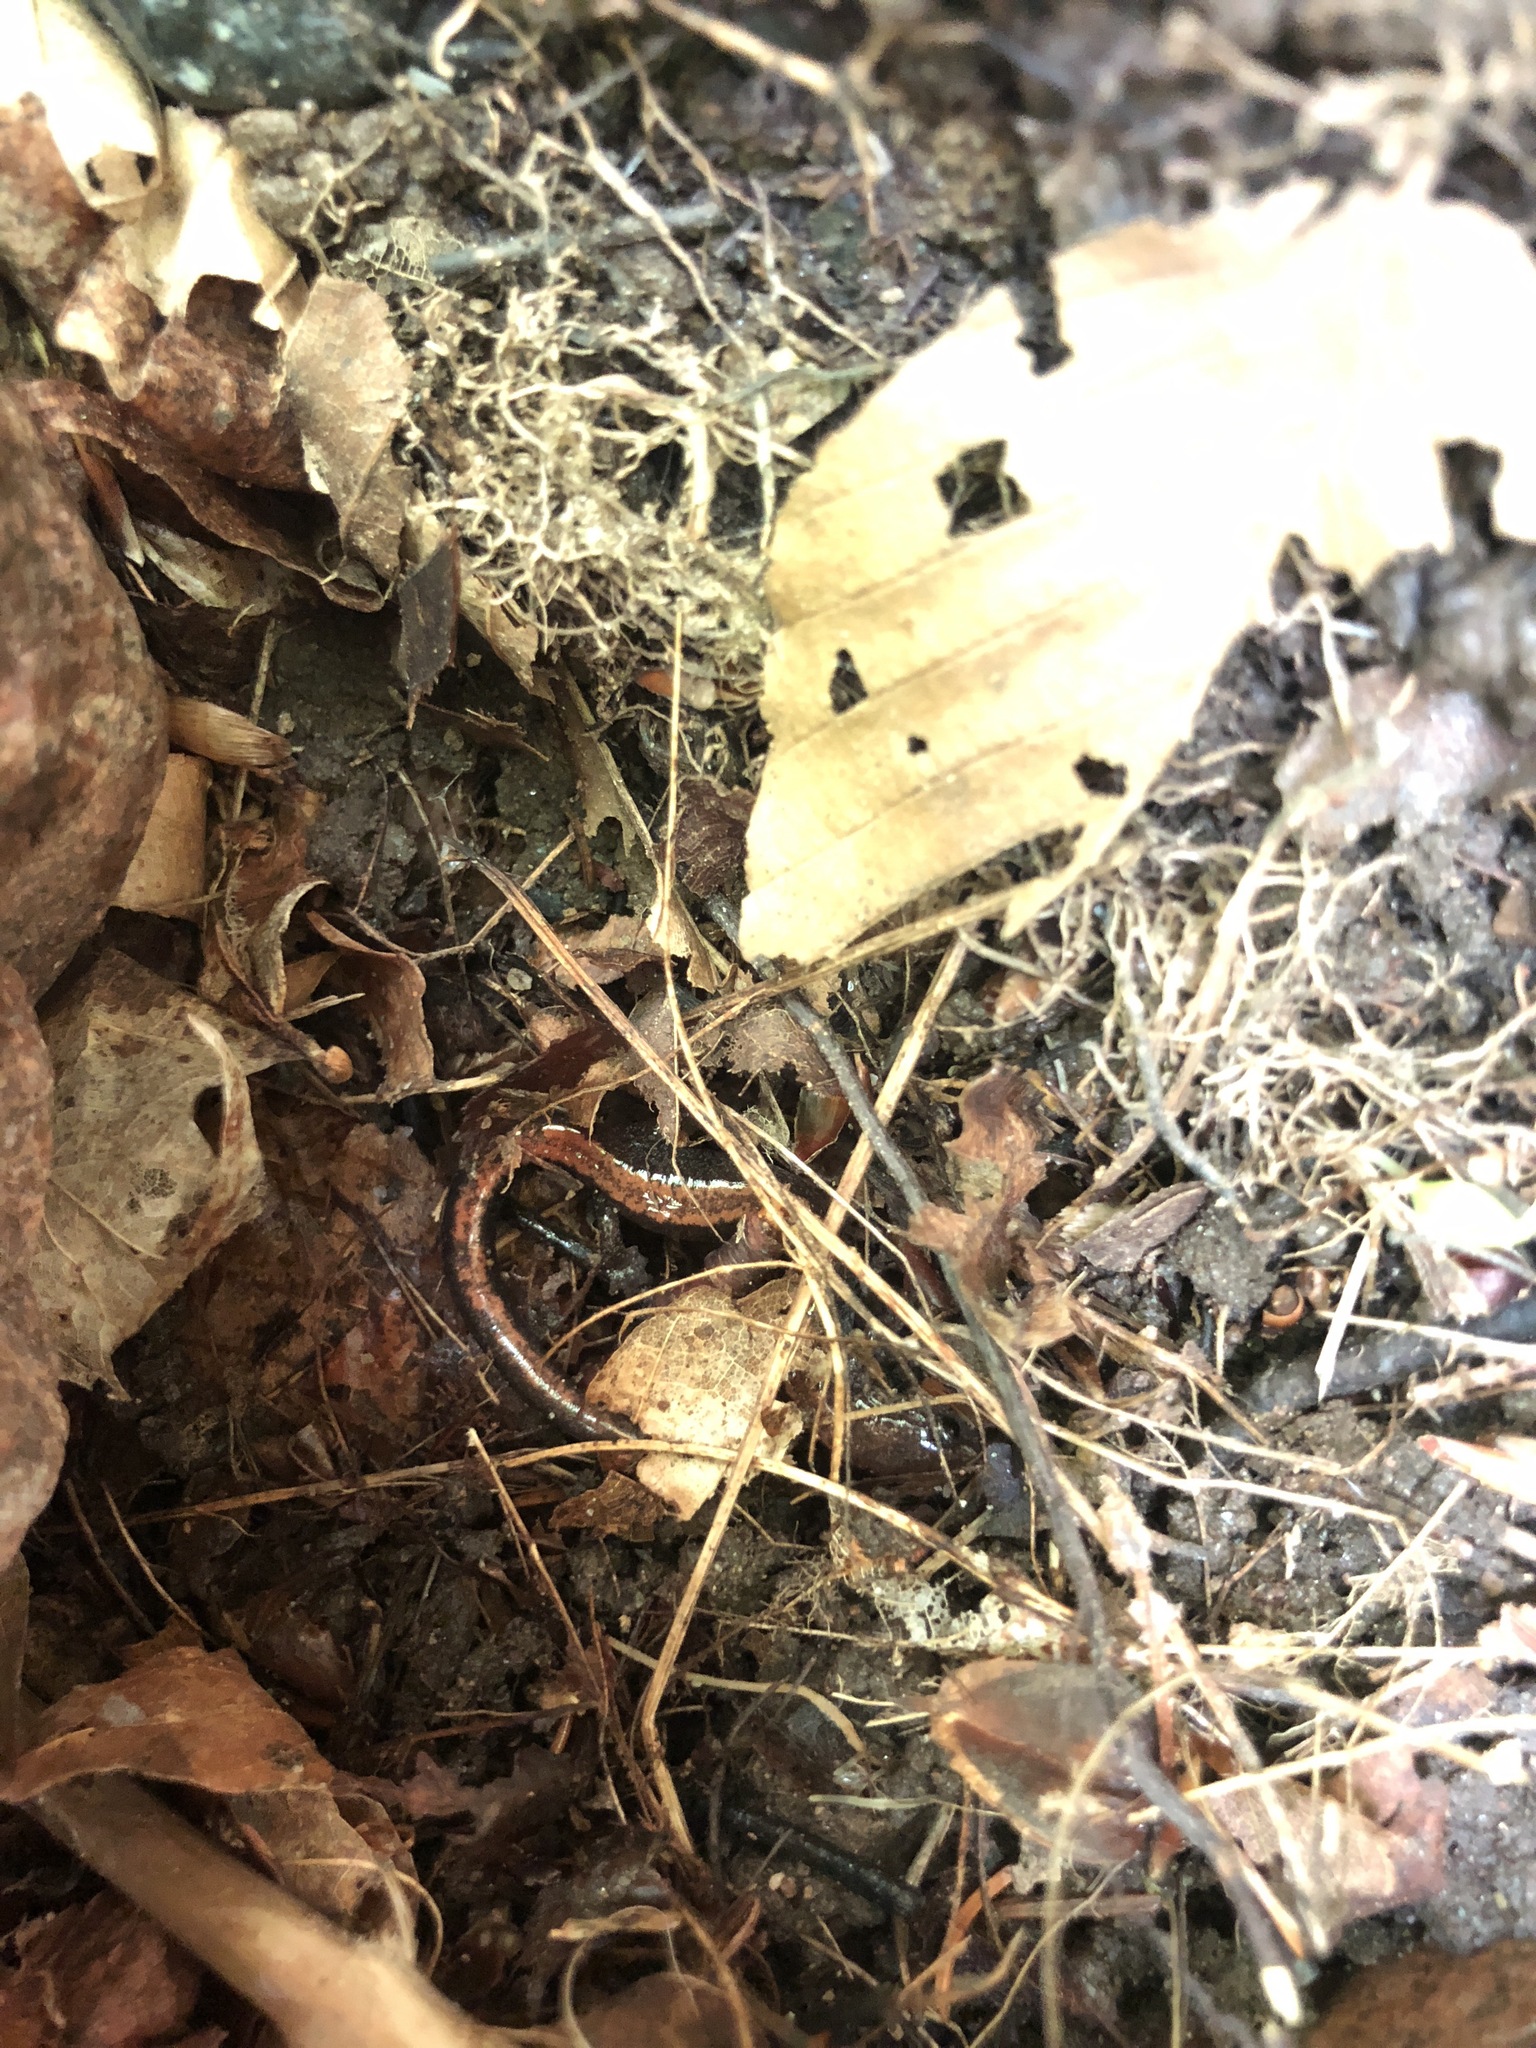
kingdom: Animalia
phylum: Chordata
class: Amphibia
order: Caudata
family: Plethodontidae
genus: Plethodon
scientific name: Plethodon cinereus
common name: Redback salamander
